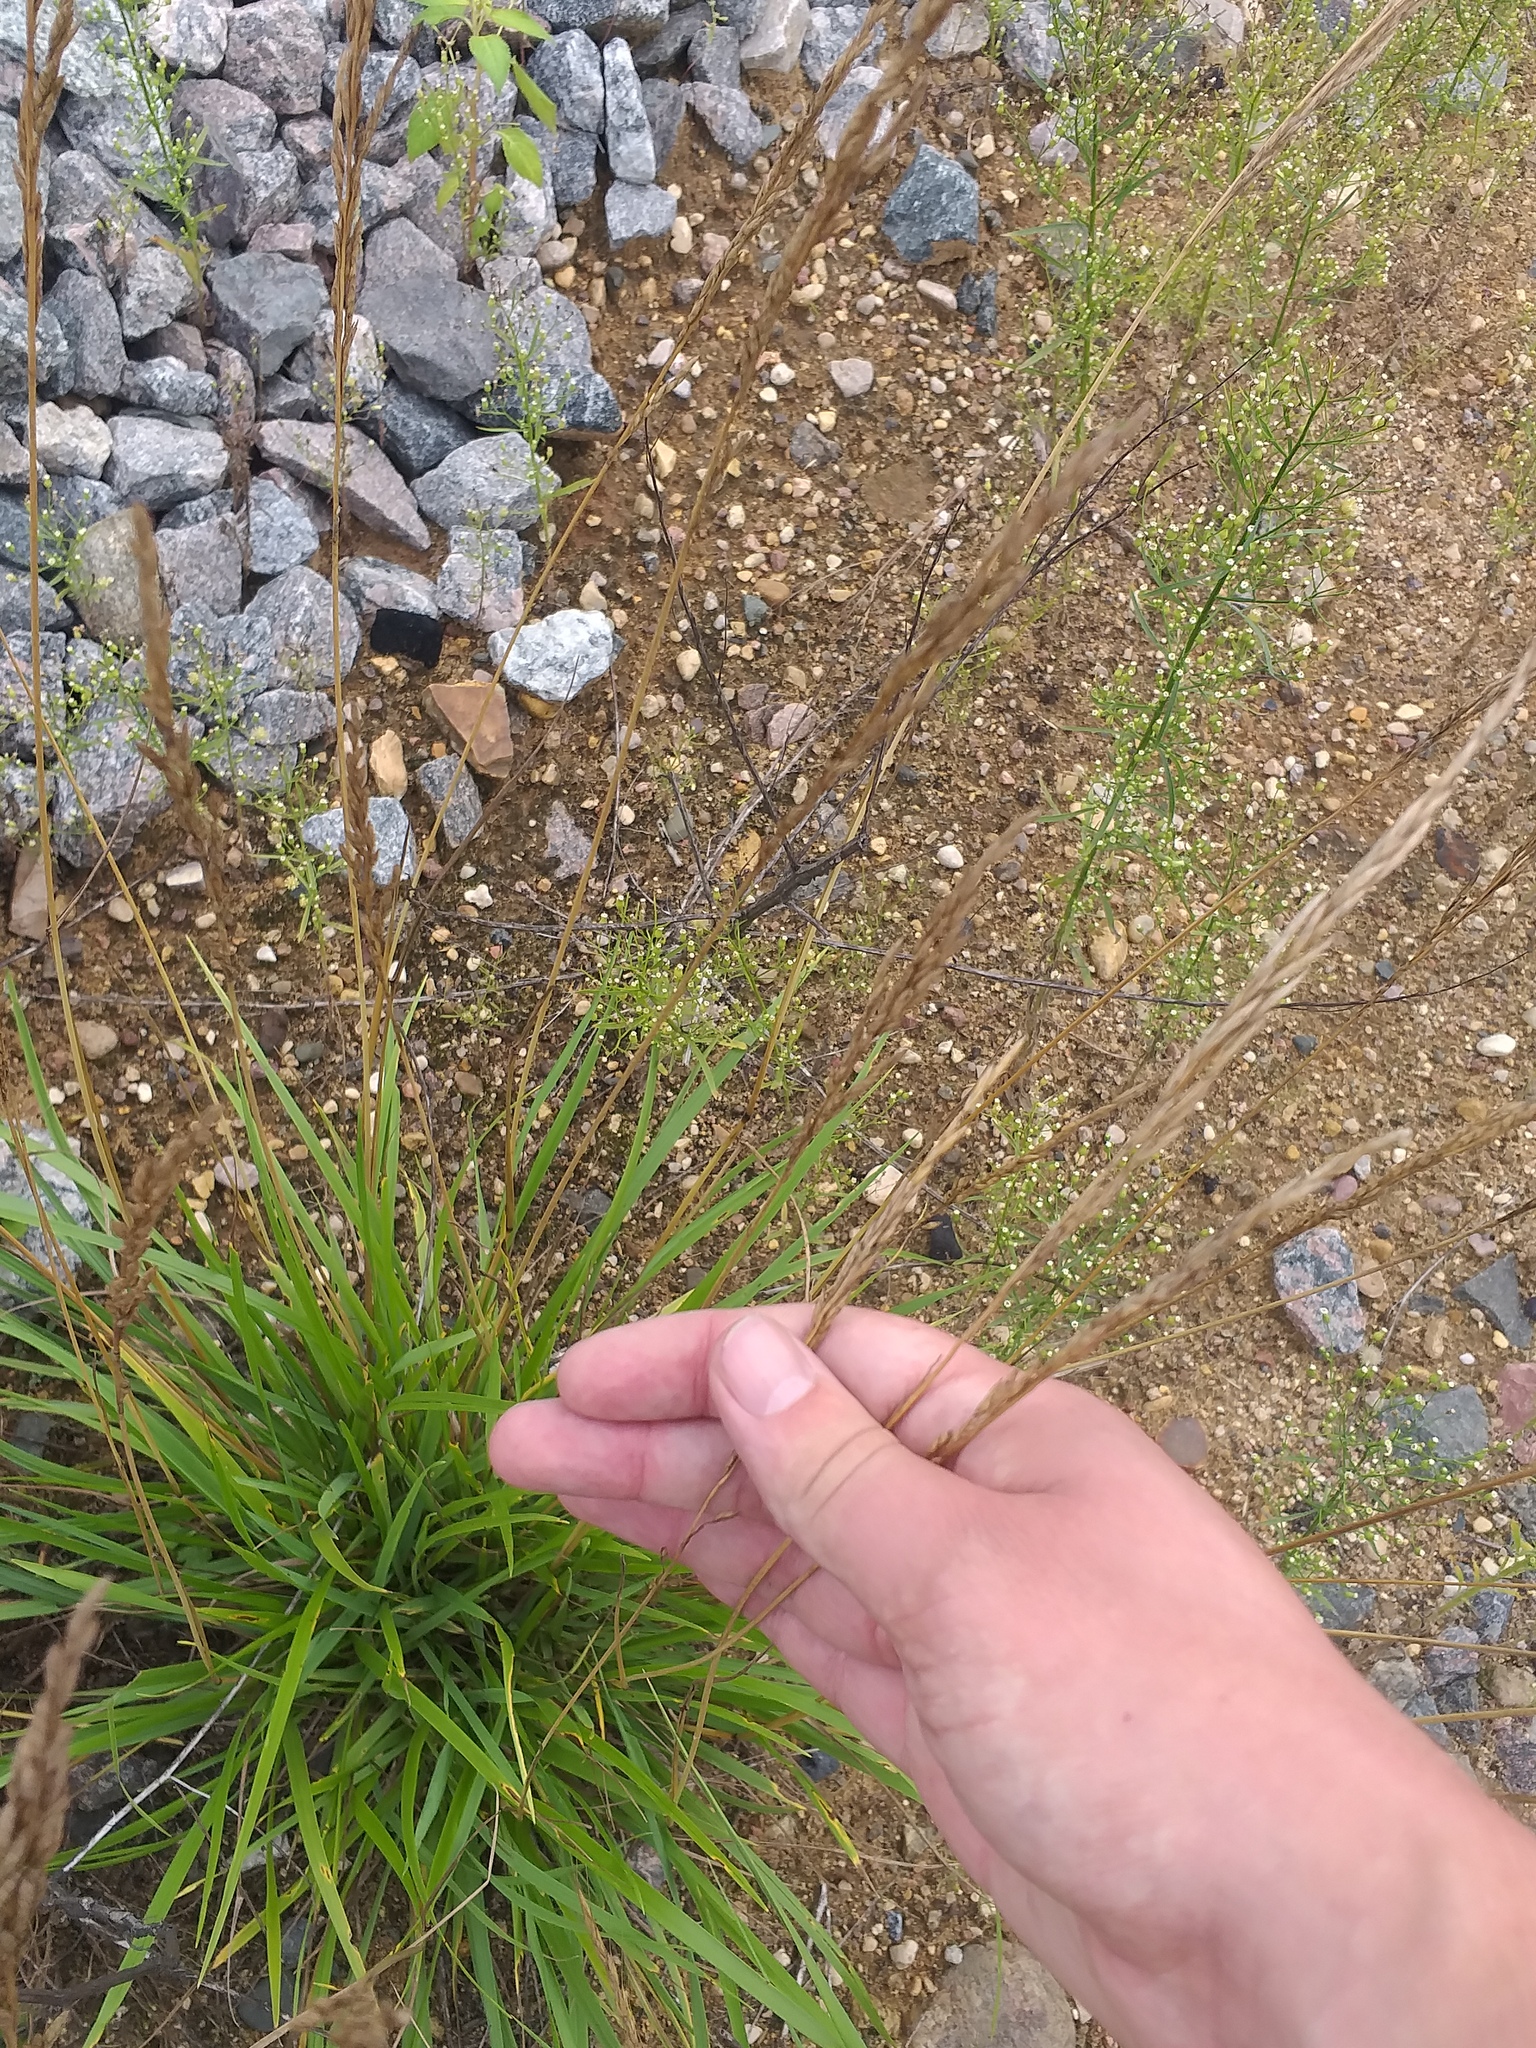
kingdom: Plantae
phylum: Tracheophyta
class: Liliopsida
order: Poales
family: Poaceae
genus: Lolium
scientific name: Lolium pratense
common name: Dover grass
